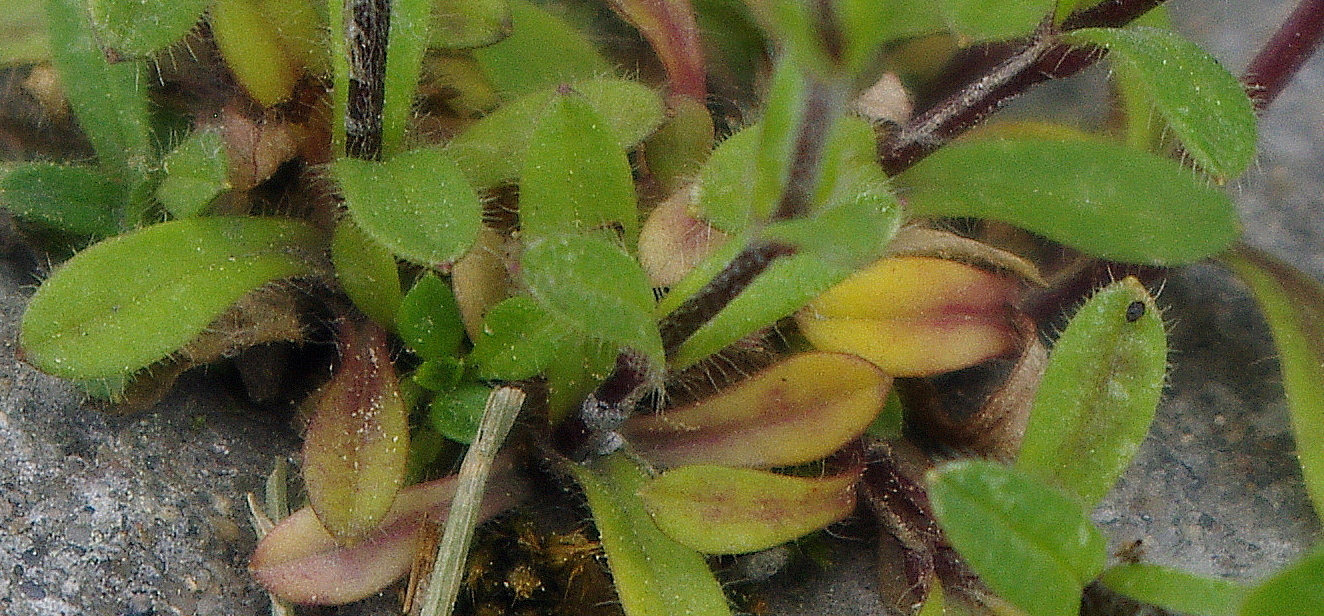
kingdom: Plantae
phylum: Tracheophyta
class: Magnoliopsida
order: Caryophyllales
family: Caryophyllaceae
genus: Cerastium
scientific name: Cerastium holosteoides
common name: Big chickweed
